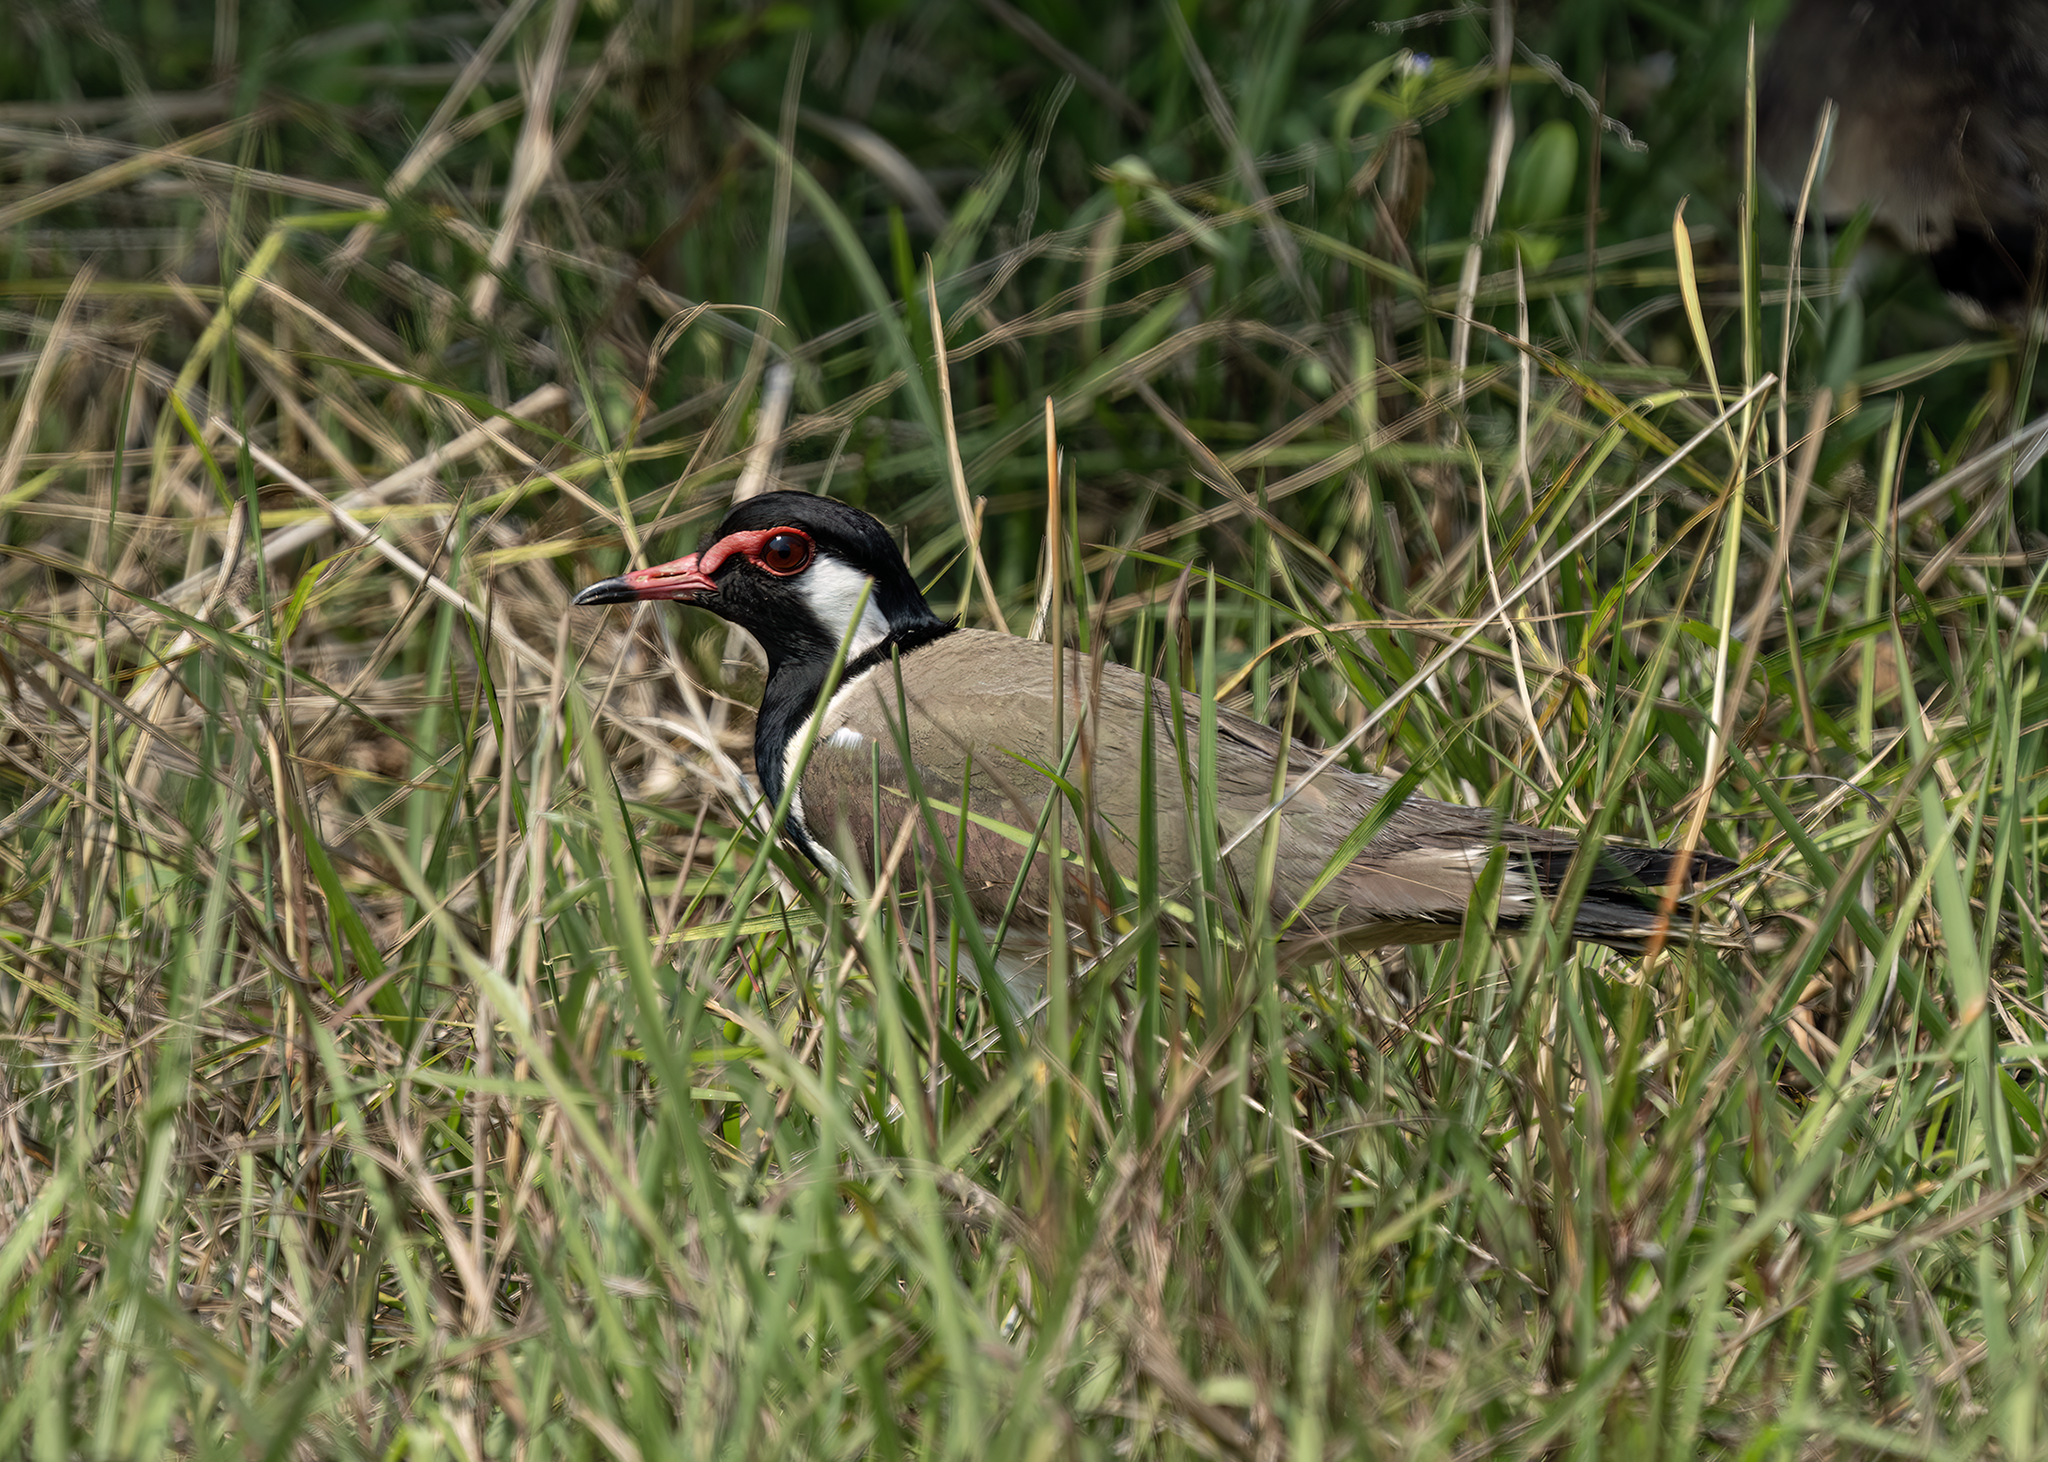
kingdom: Animalia
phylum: Chordata
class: Aves
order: Charadriiformes
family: Charadriidae
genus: Vanellus
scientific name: Vanellus indicus
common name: Red-wattled lapwing
